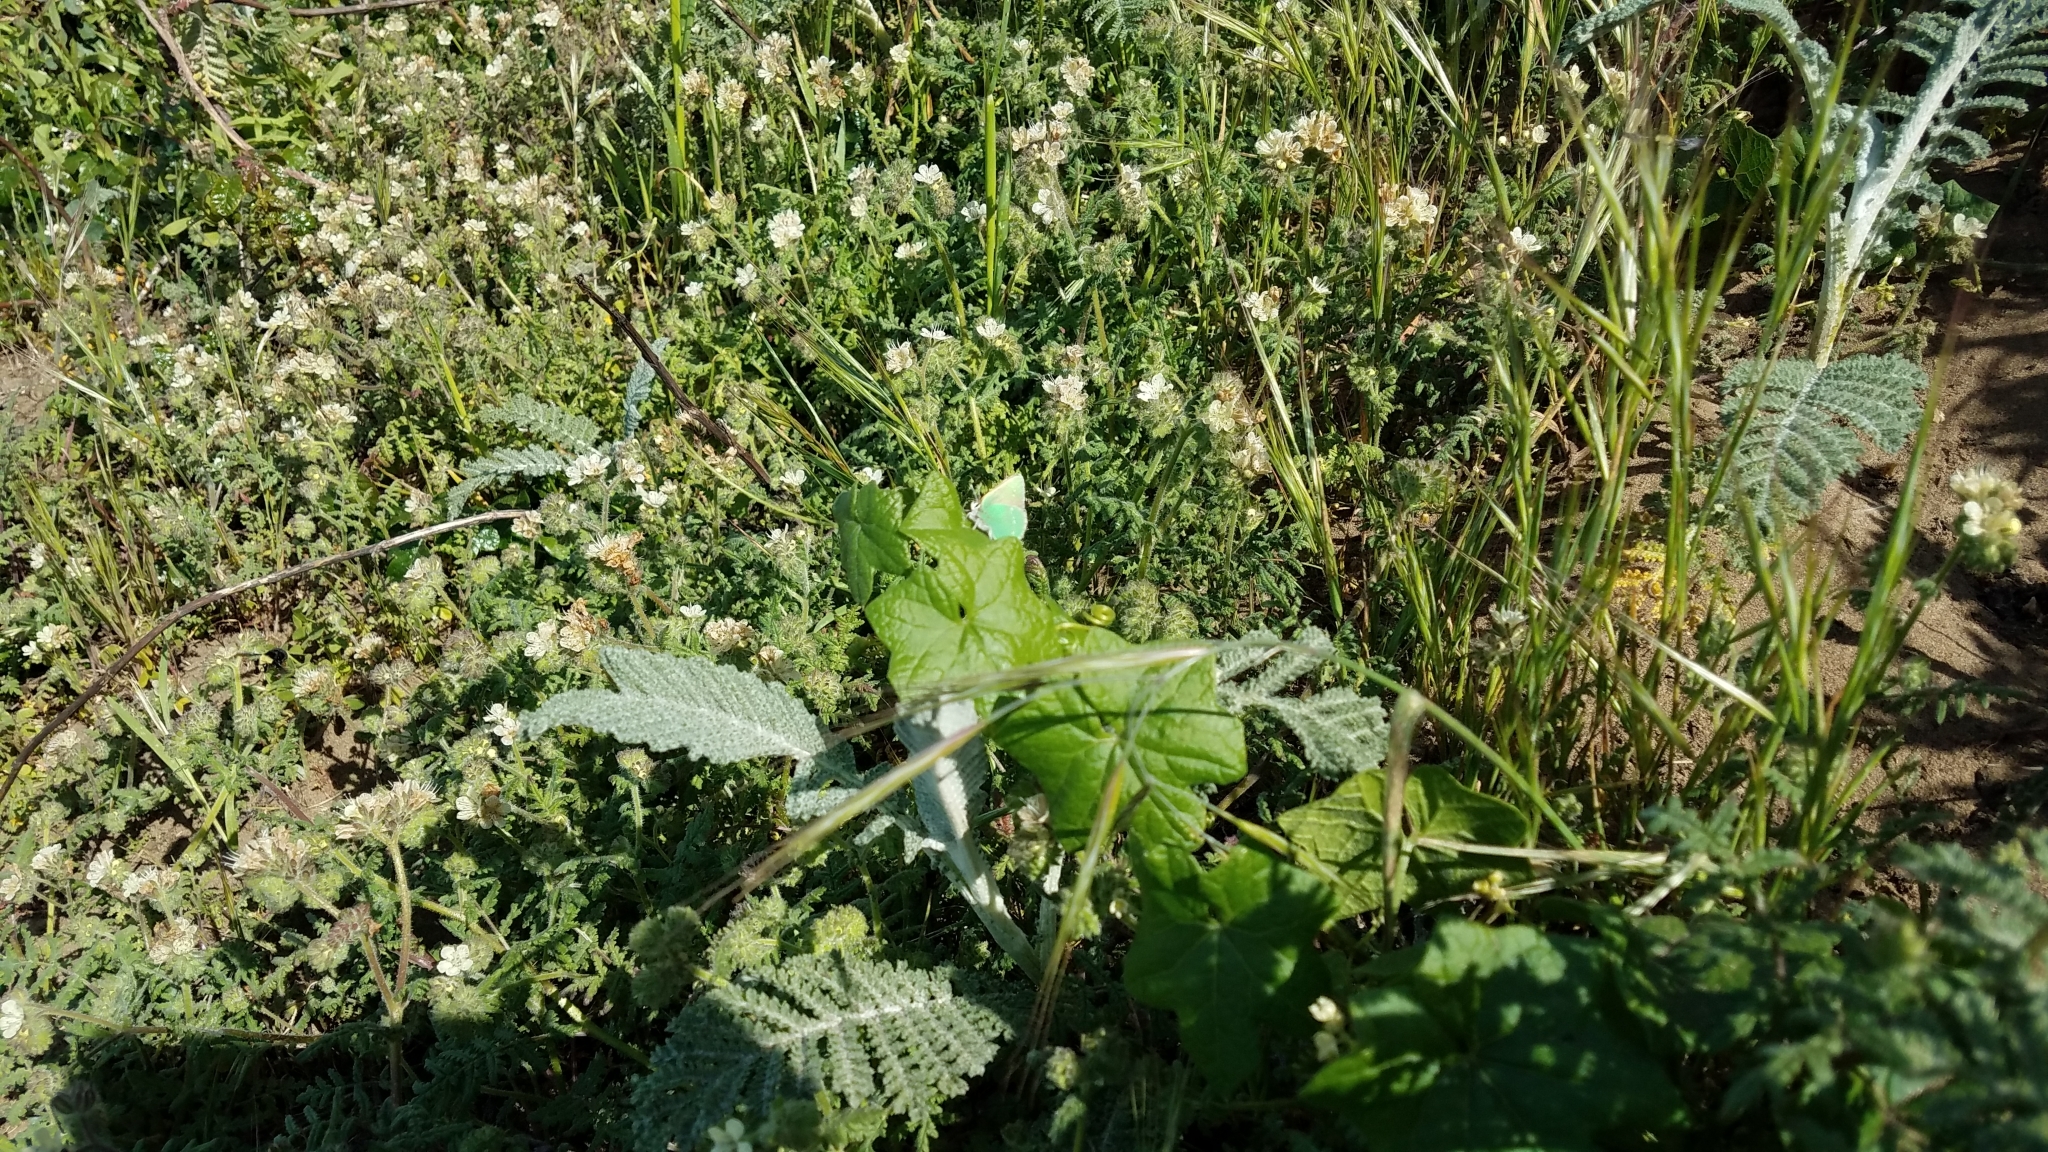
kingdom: Animalia
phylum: Arthropoda
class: Insecta
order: Lepidoptera
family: Lycaenidae
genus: Callophrys
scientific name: Callophrys viridis
